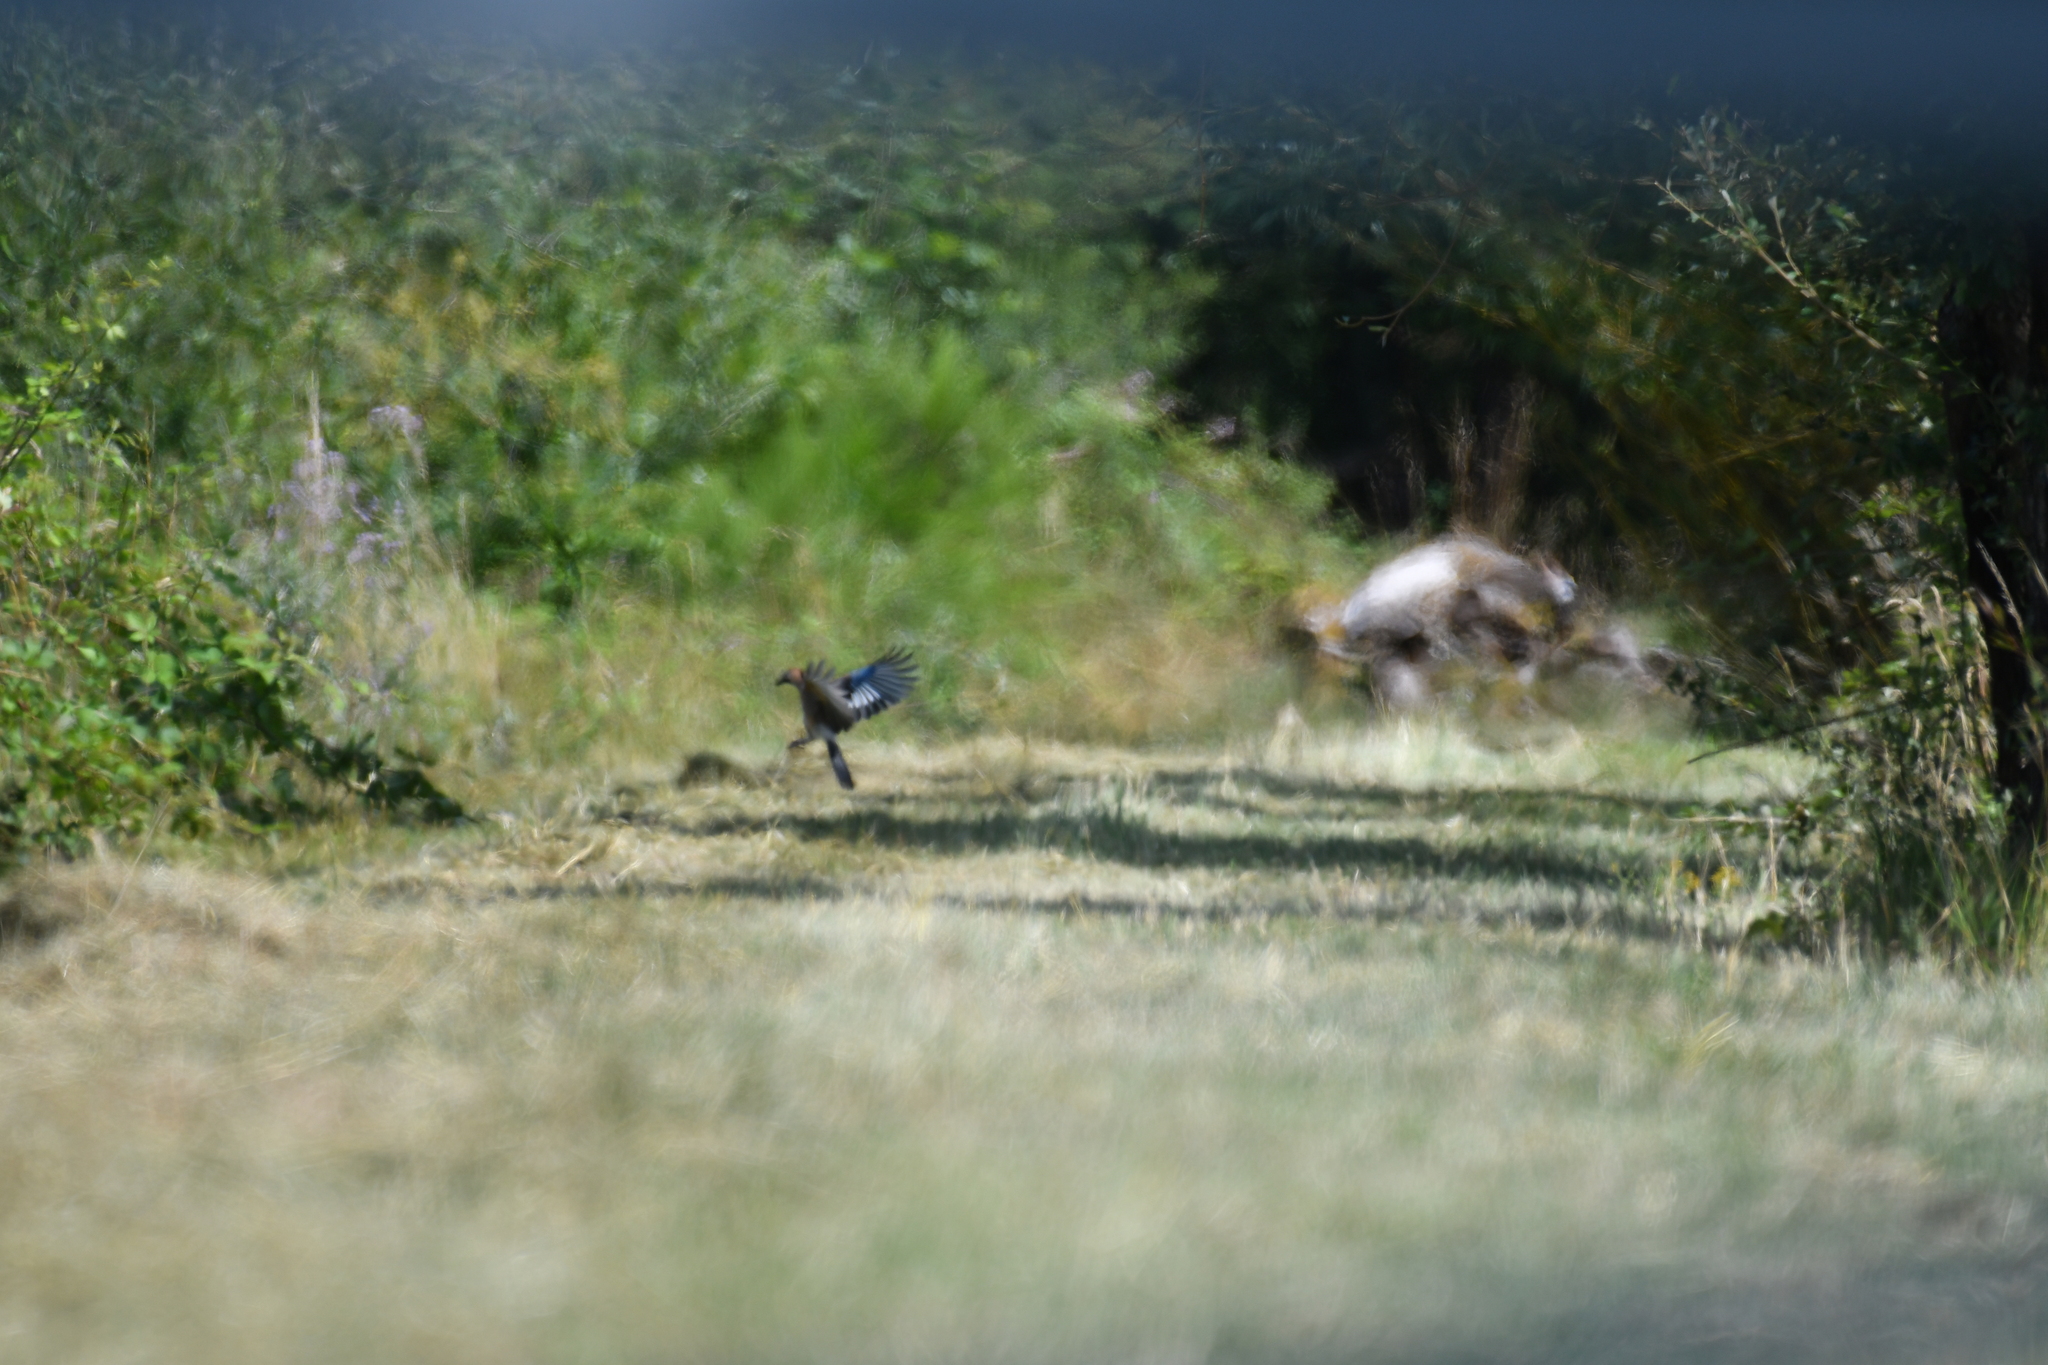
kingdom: Animalia
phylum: Chordata
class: Aves
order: Passeriformes
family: Corvidae
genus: Garrulus
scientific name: Garrulus glandarius
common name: Eurasian jay
